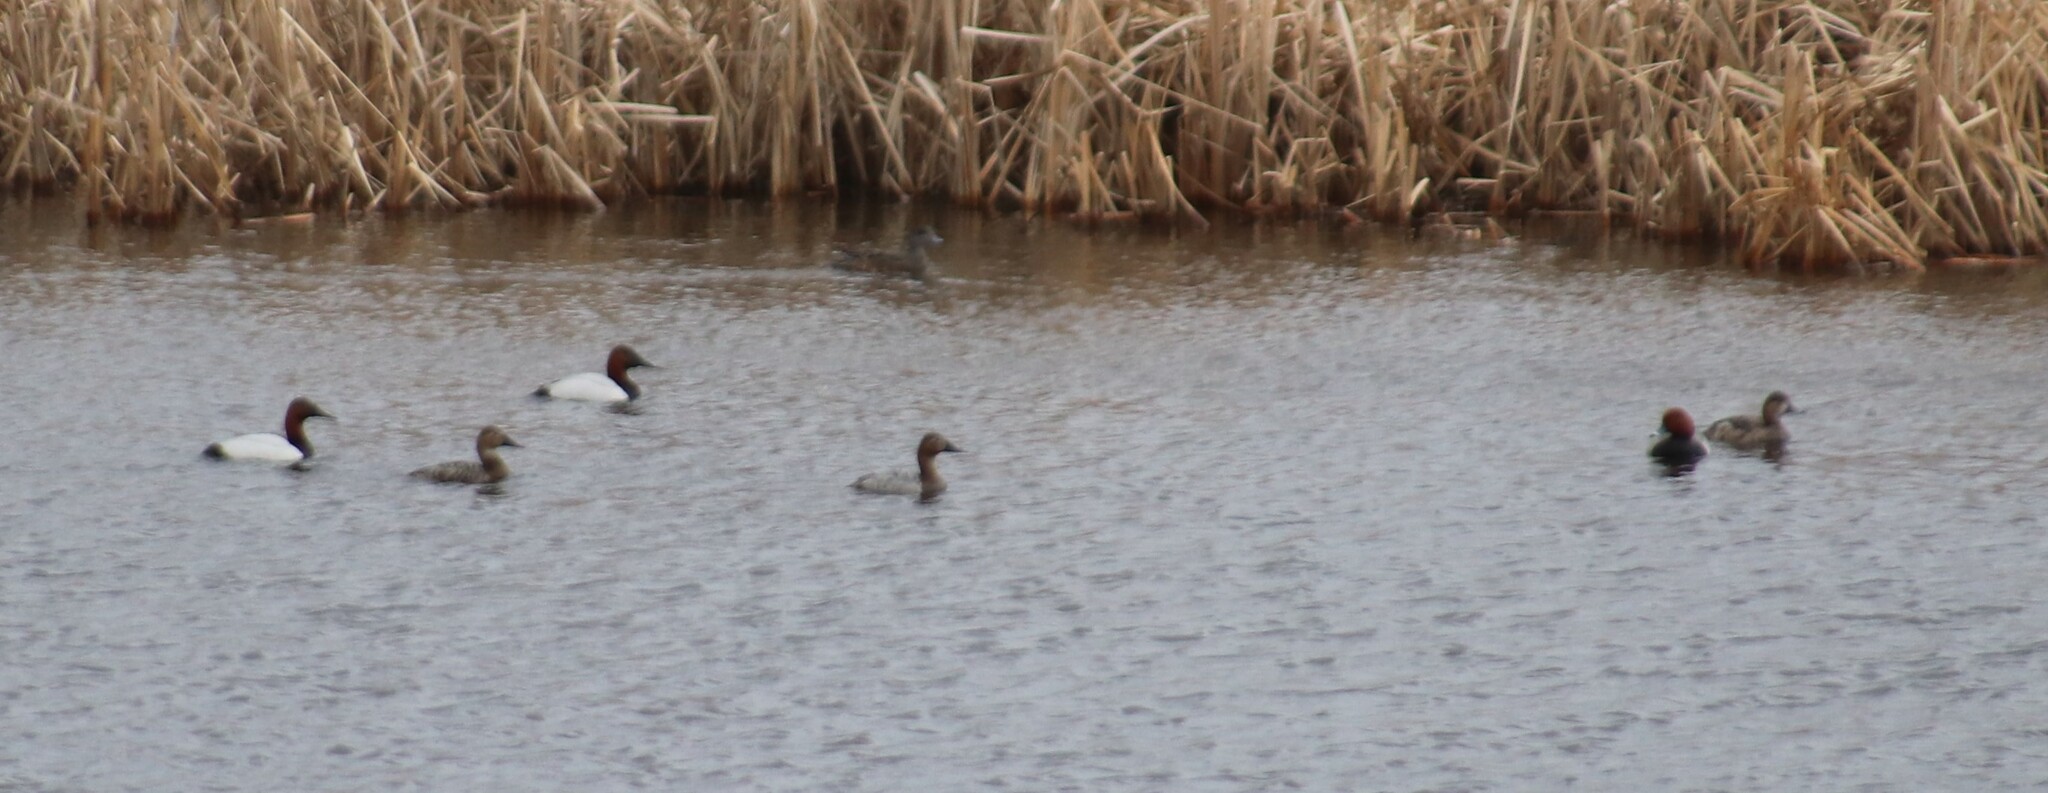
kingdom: Animalia
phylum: Chordata
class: Aves
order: Anseriformes
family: Anatidae
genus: Aythya
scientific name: Aythya valisineria
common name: Canvasback
